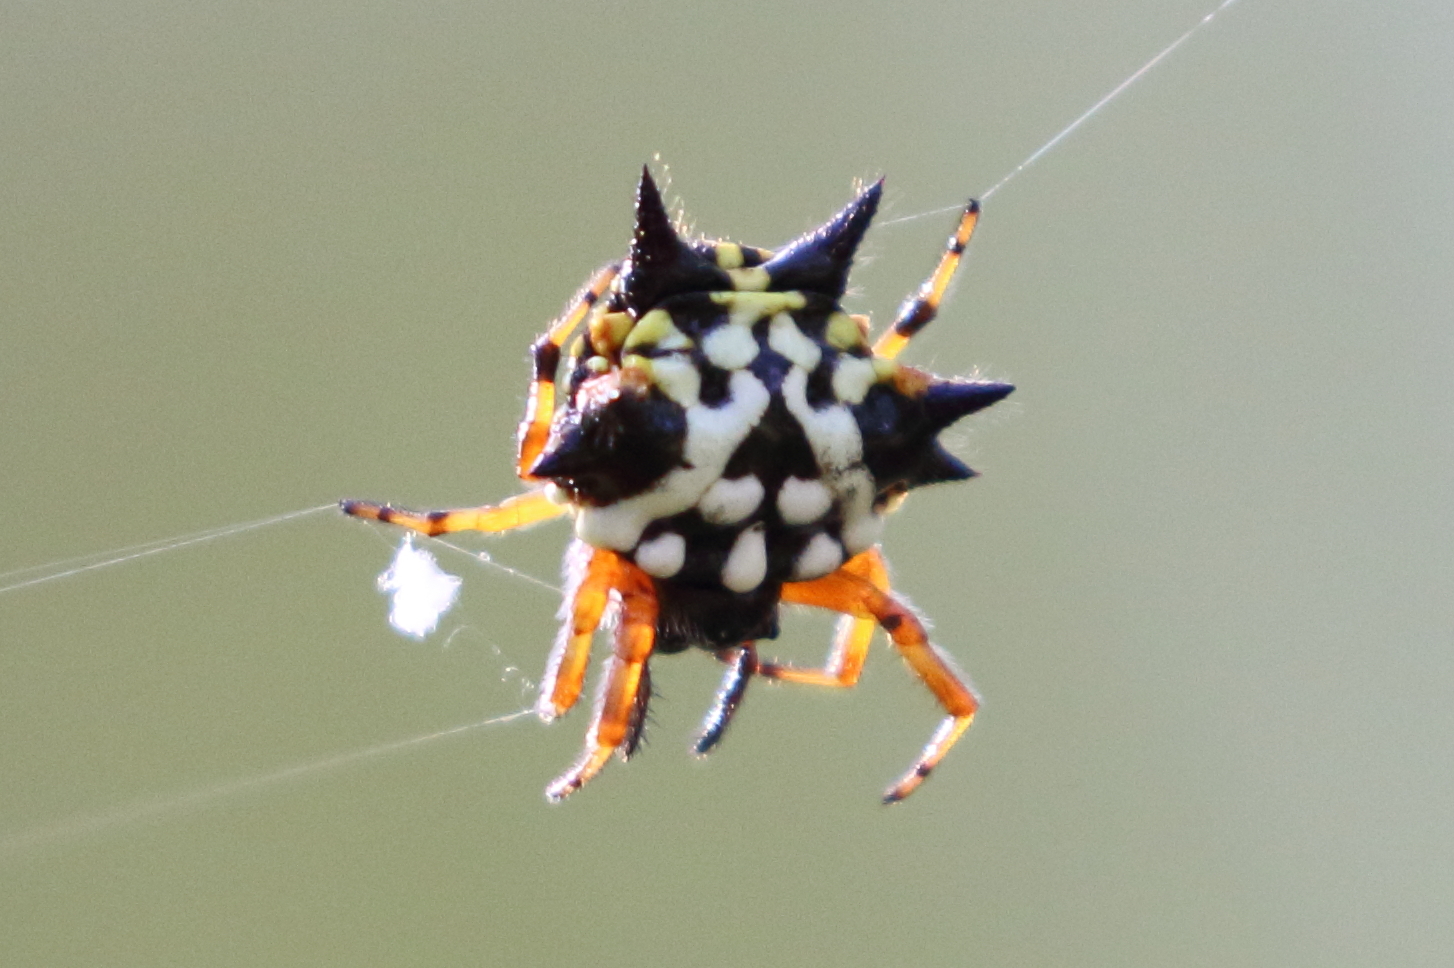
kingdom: Animalia
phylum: Arthropoda
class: Arachnida
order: Araneae
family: Araneidae
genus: Austracantha
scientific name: Austracantha minax
